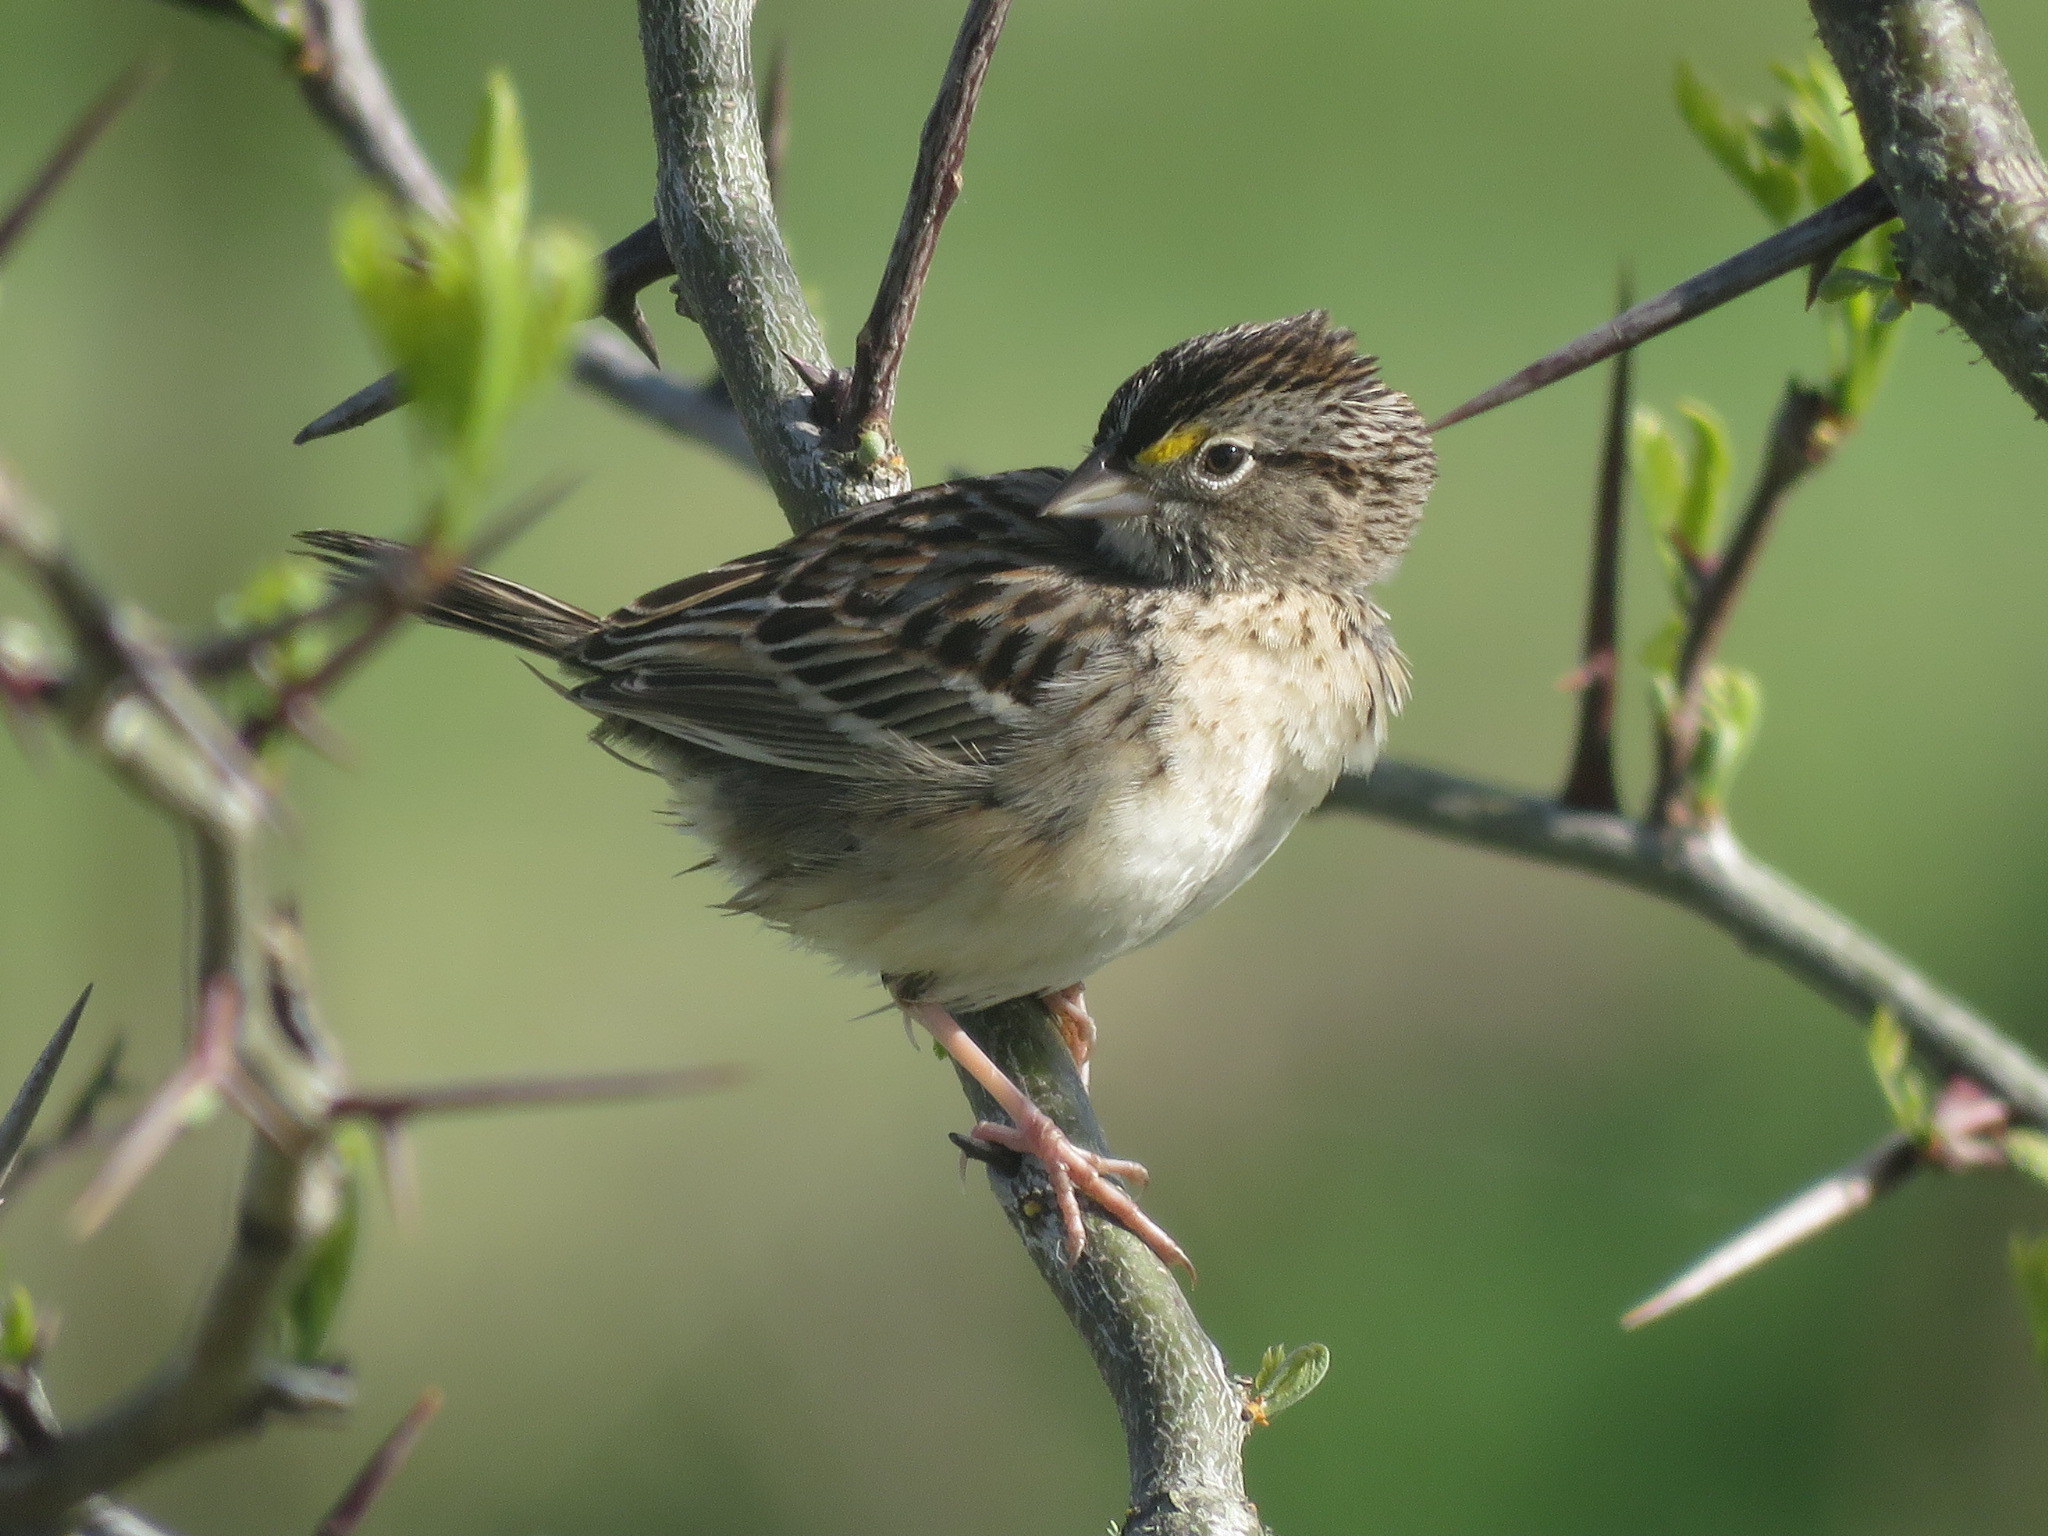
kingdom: Animalia
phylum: Chordata
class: Aves
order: Passeriformes
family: Passerellidae
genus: Ammodramus
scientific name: Ammodramus humeralis
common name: Grassland sparrow
